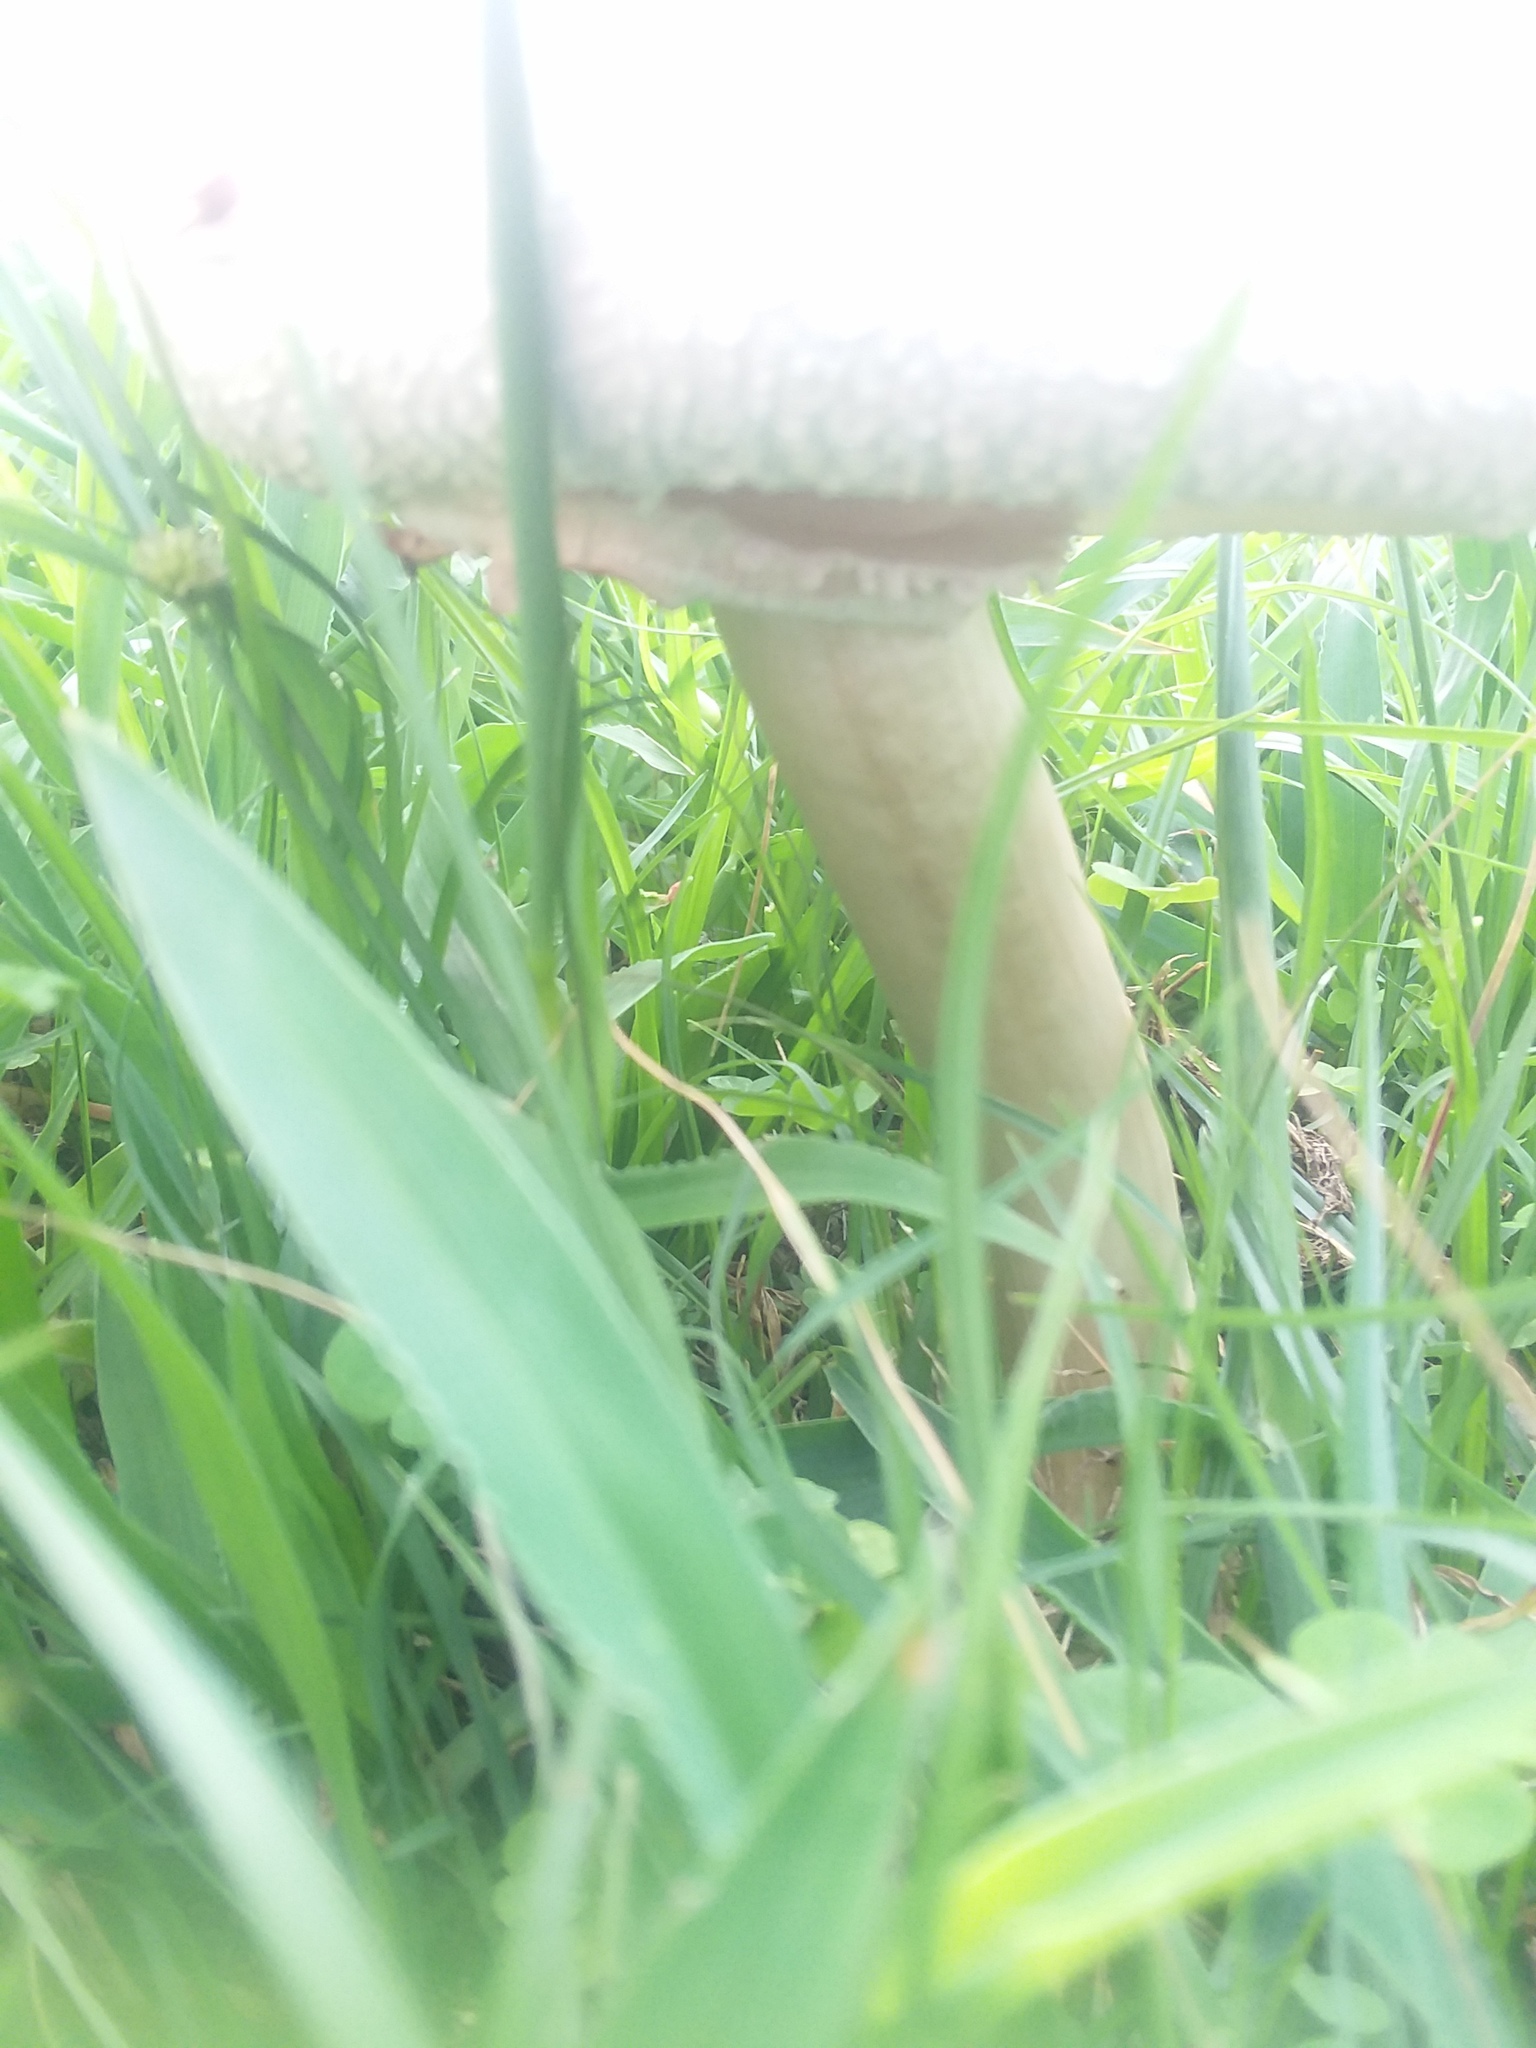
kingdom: Fungi
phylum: Basidiomycota
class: Agaricomycetes
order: Agaricales
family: Agaricaceae
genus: Chlorophyllum
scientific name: Chlorophyllum molybdites
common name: False parasol
